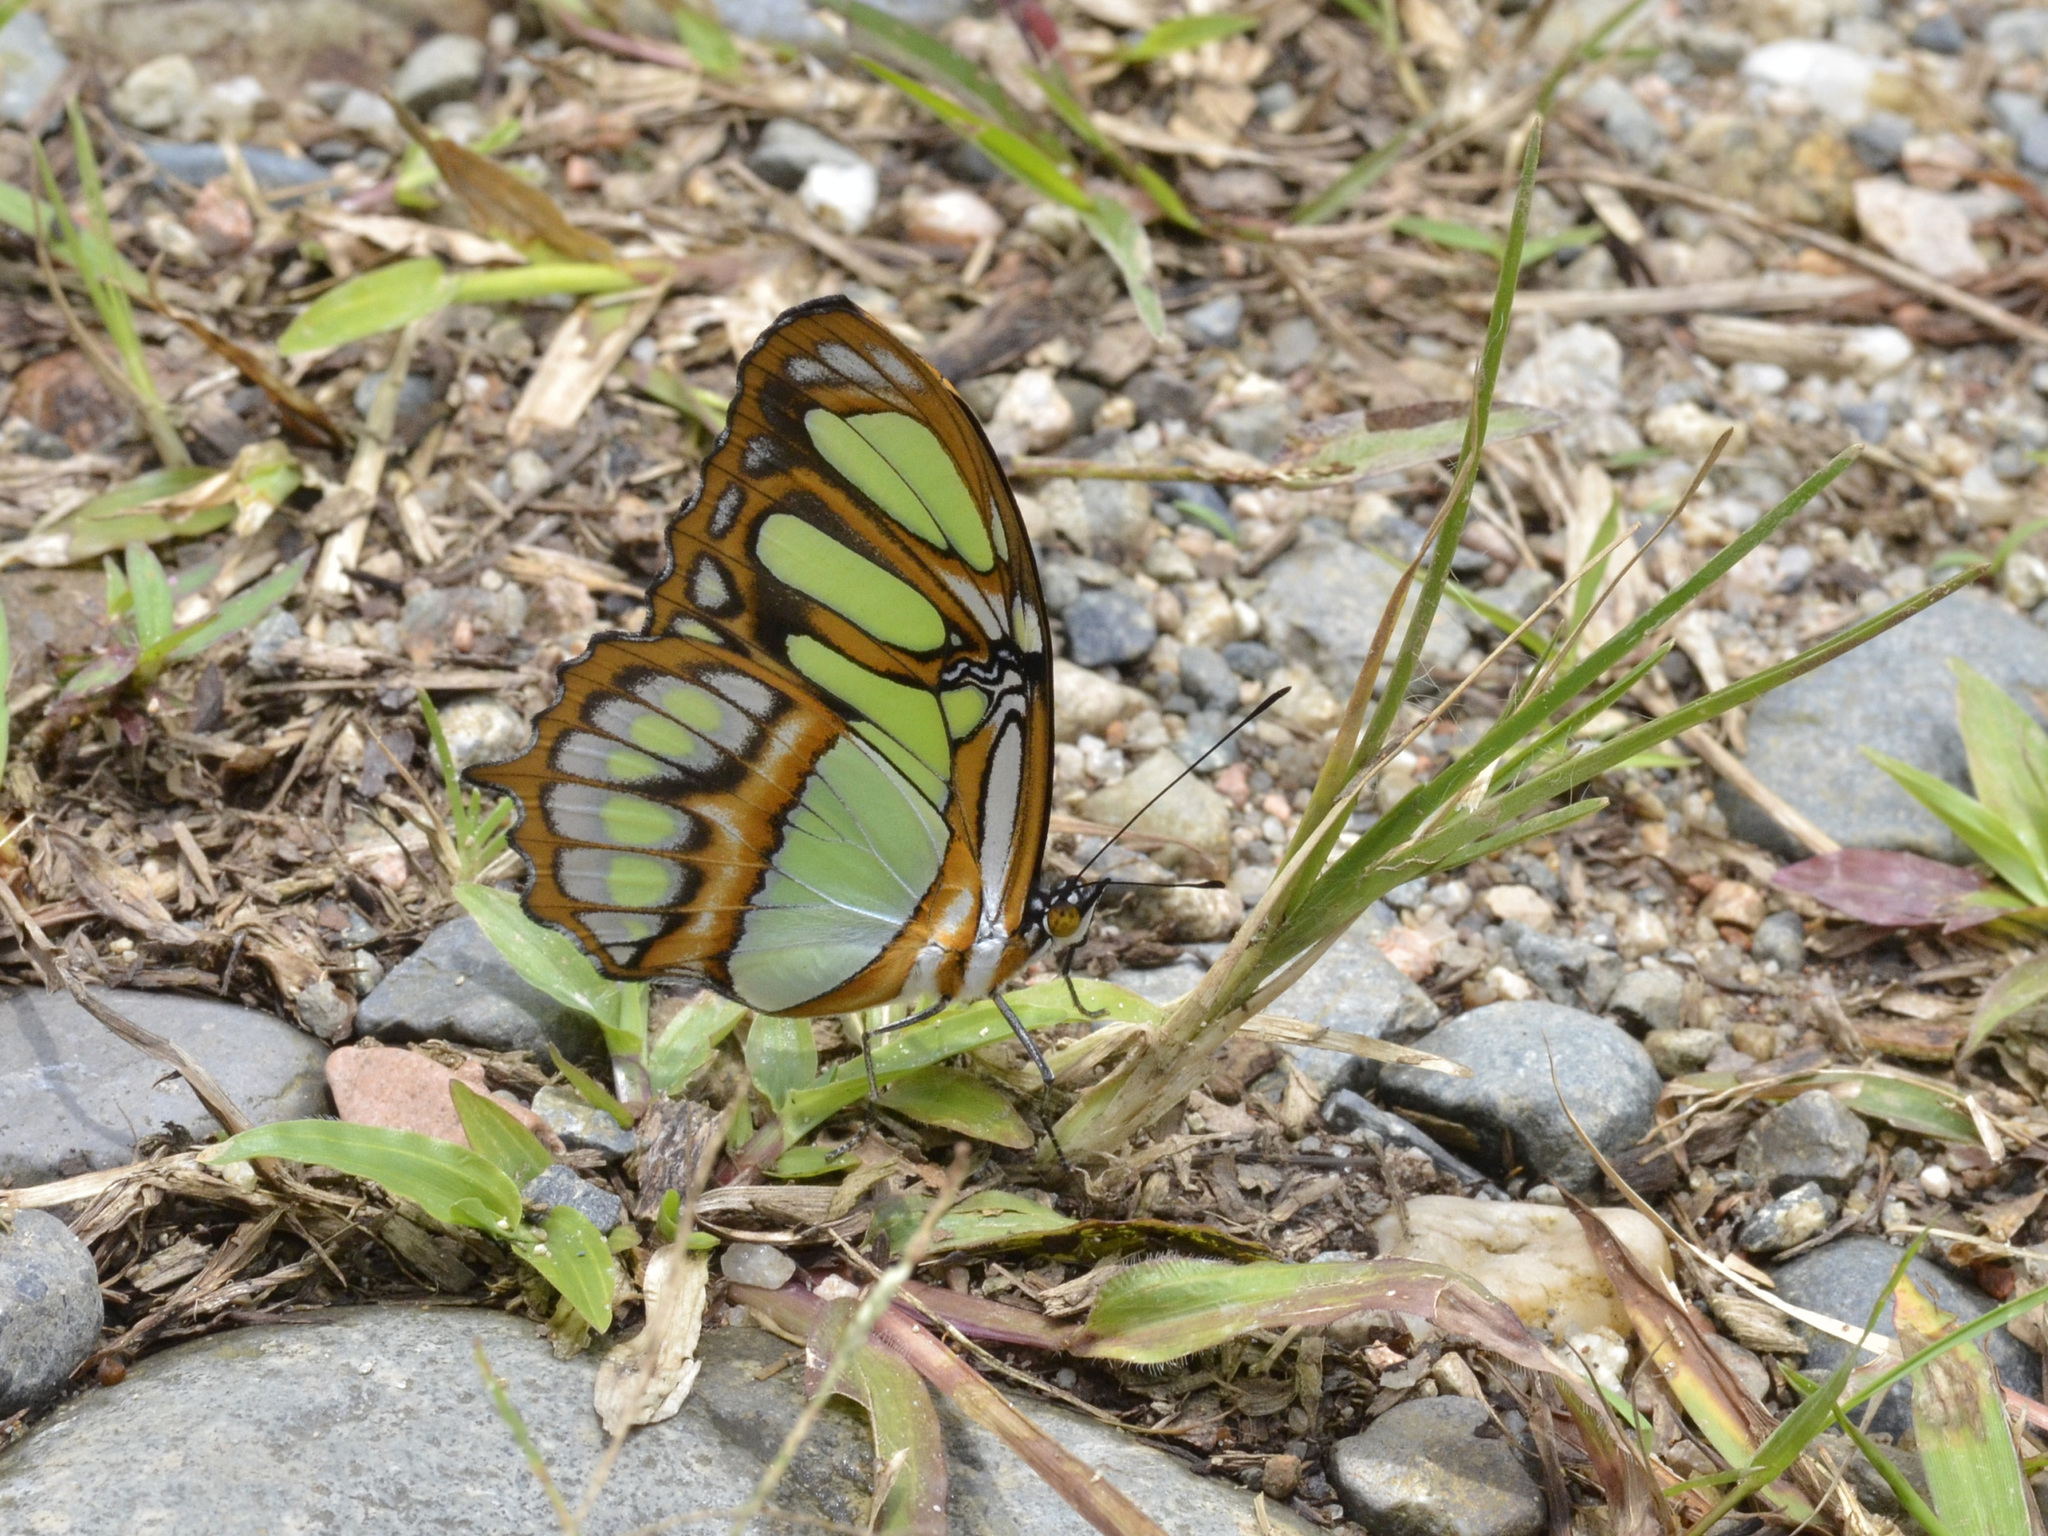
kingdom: Animalia
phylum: Arthropoda
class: Insecta
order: Lepidoptera
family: Nymphalidae
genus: Siproeta
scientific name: Siproeta stelenes
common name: Malachite
